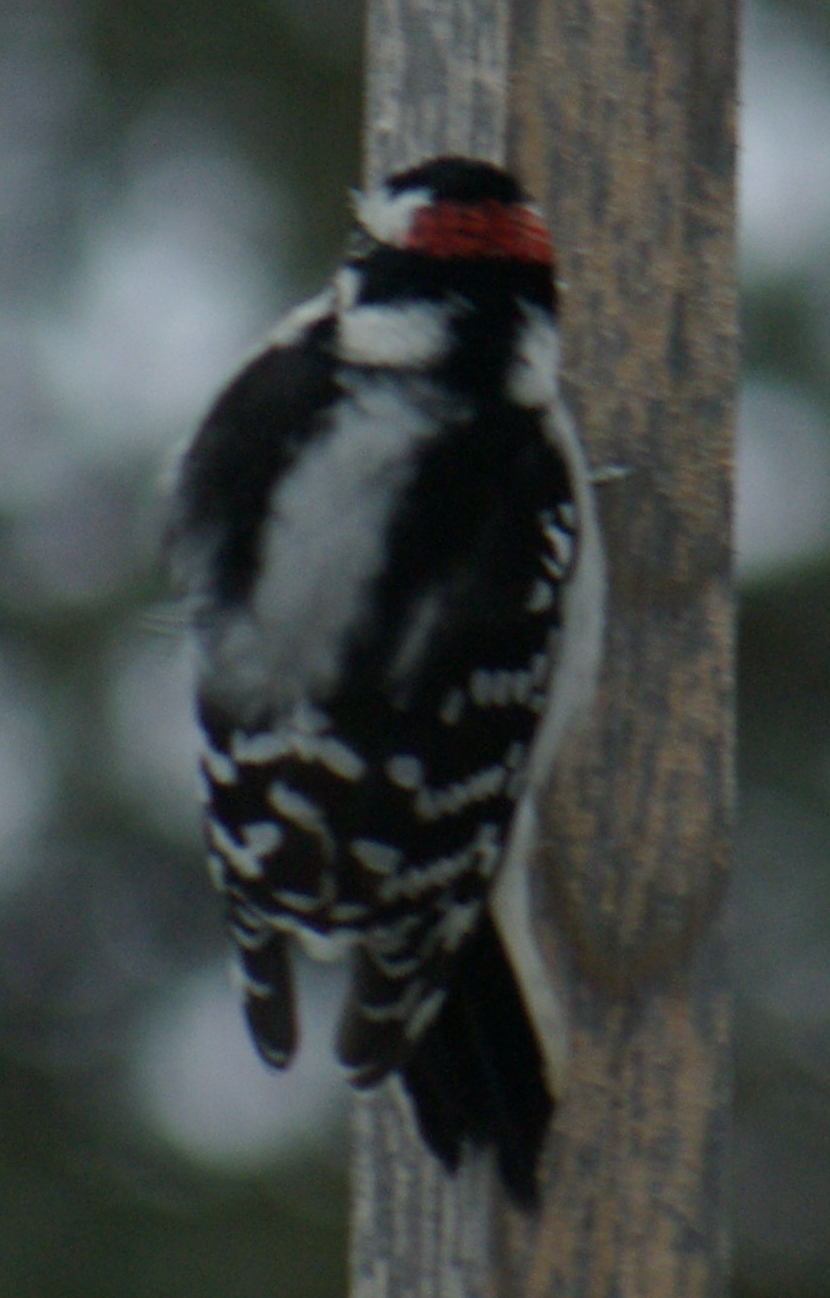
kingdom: Animalia
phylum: Chordata
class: Aves
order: Piciformes
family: Picidae
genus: Dryobates
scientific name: Dryobates pubescens
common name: Downy woodpecker
